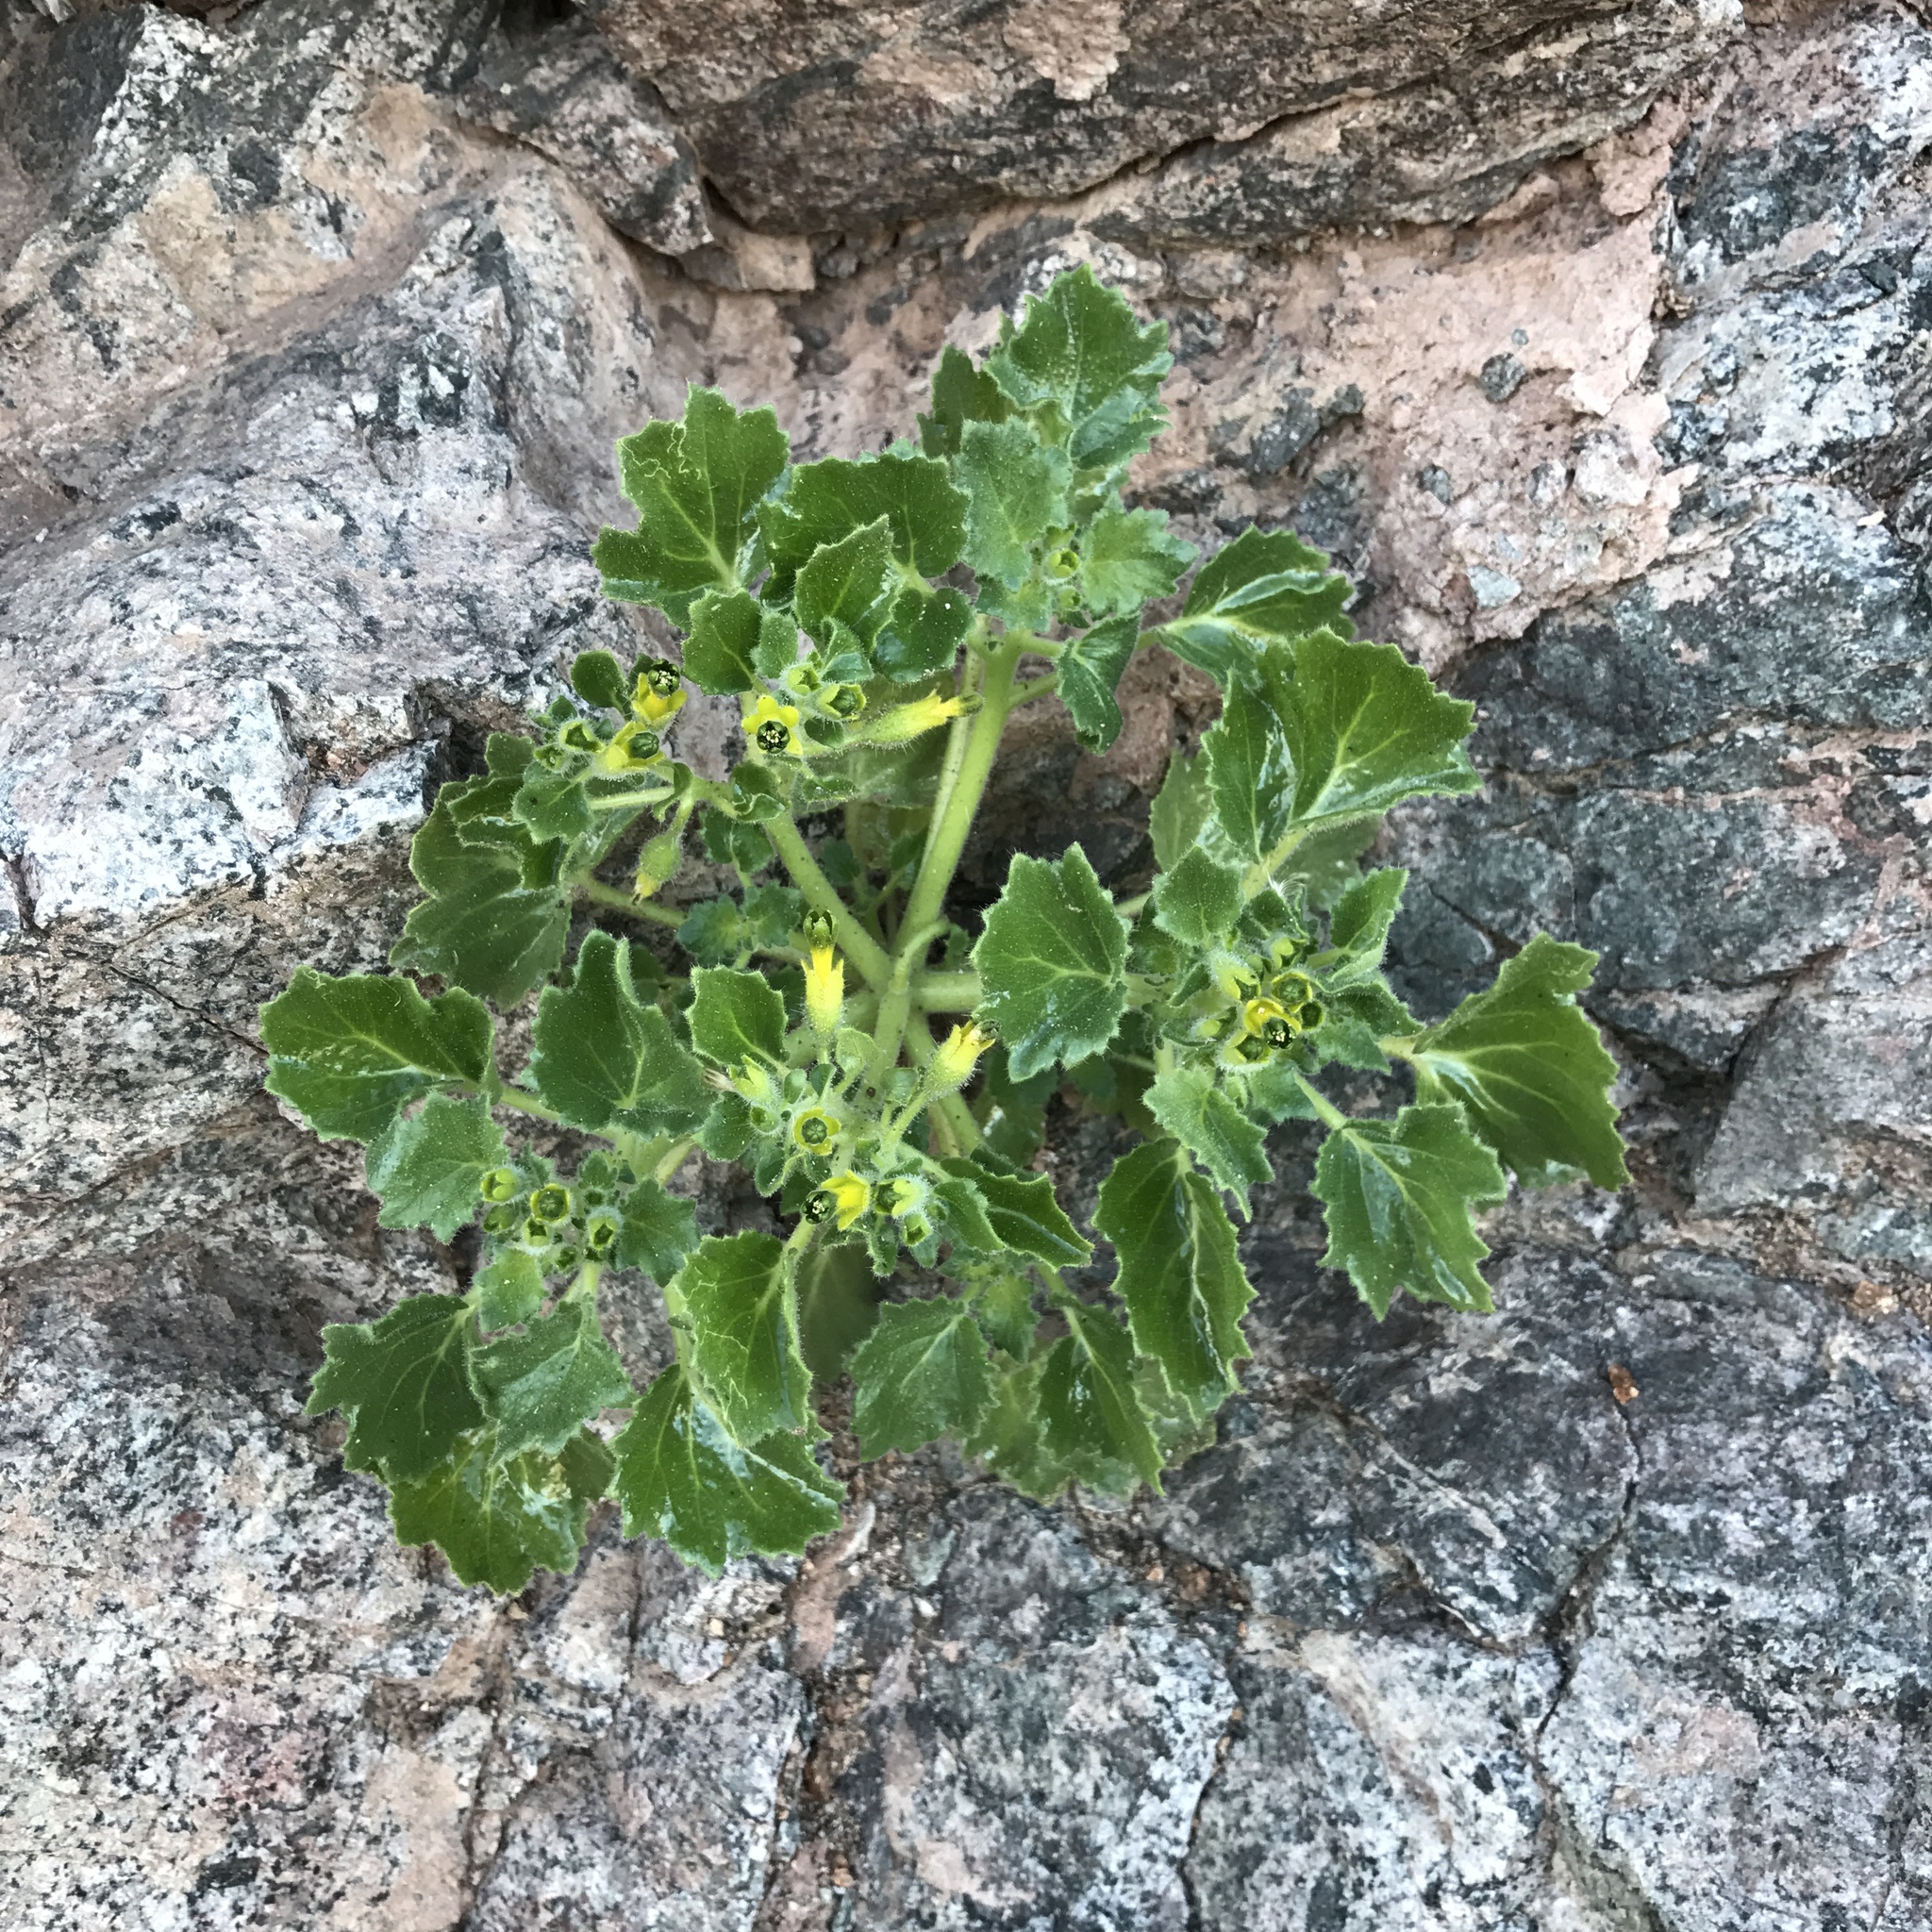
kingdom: Plantae
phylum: Tracheophyta
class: Magnoliopsida
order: Cornales
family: Loasaceae
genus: Eucnide
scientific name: Eucnide rupestris
